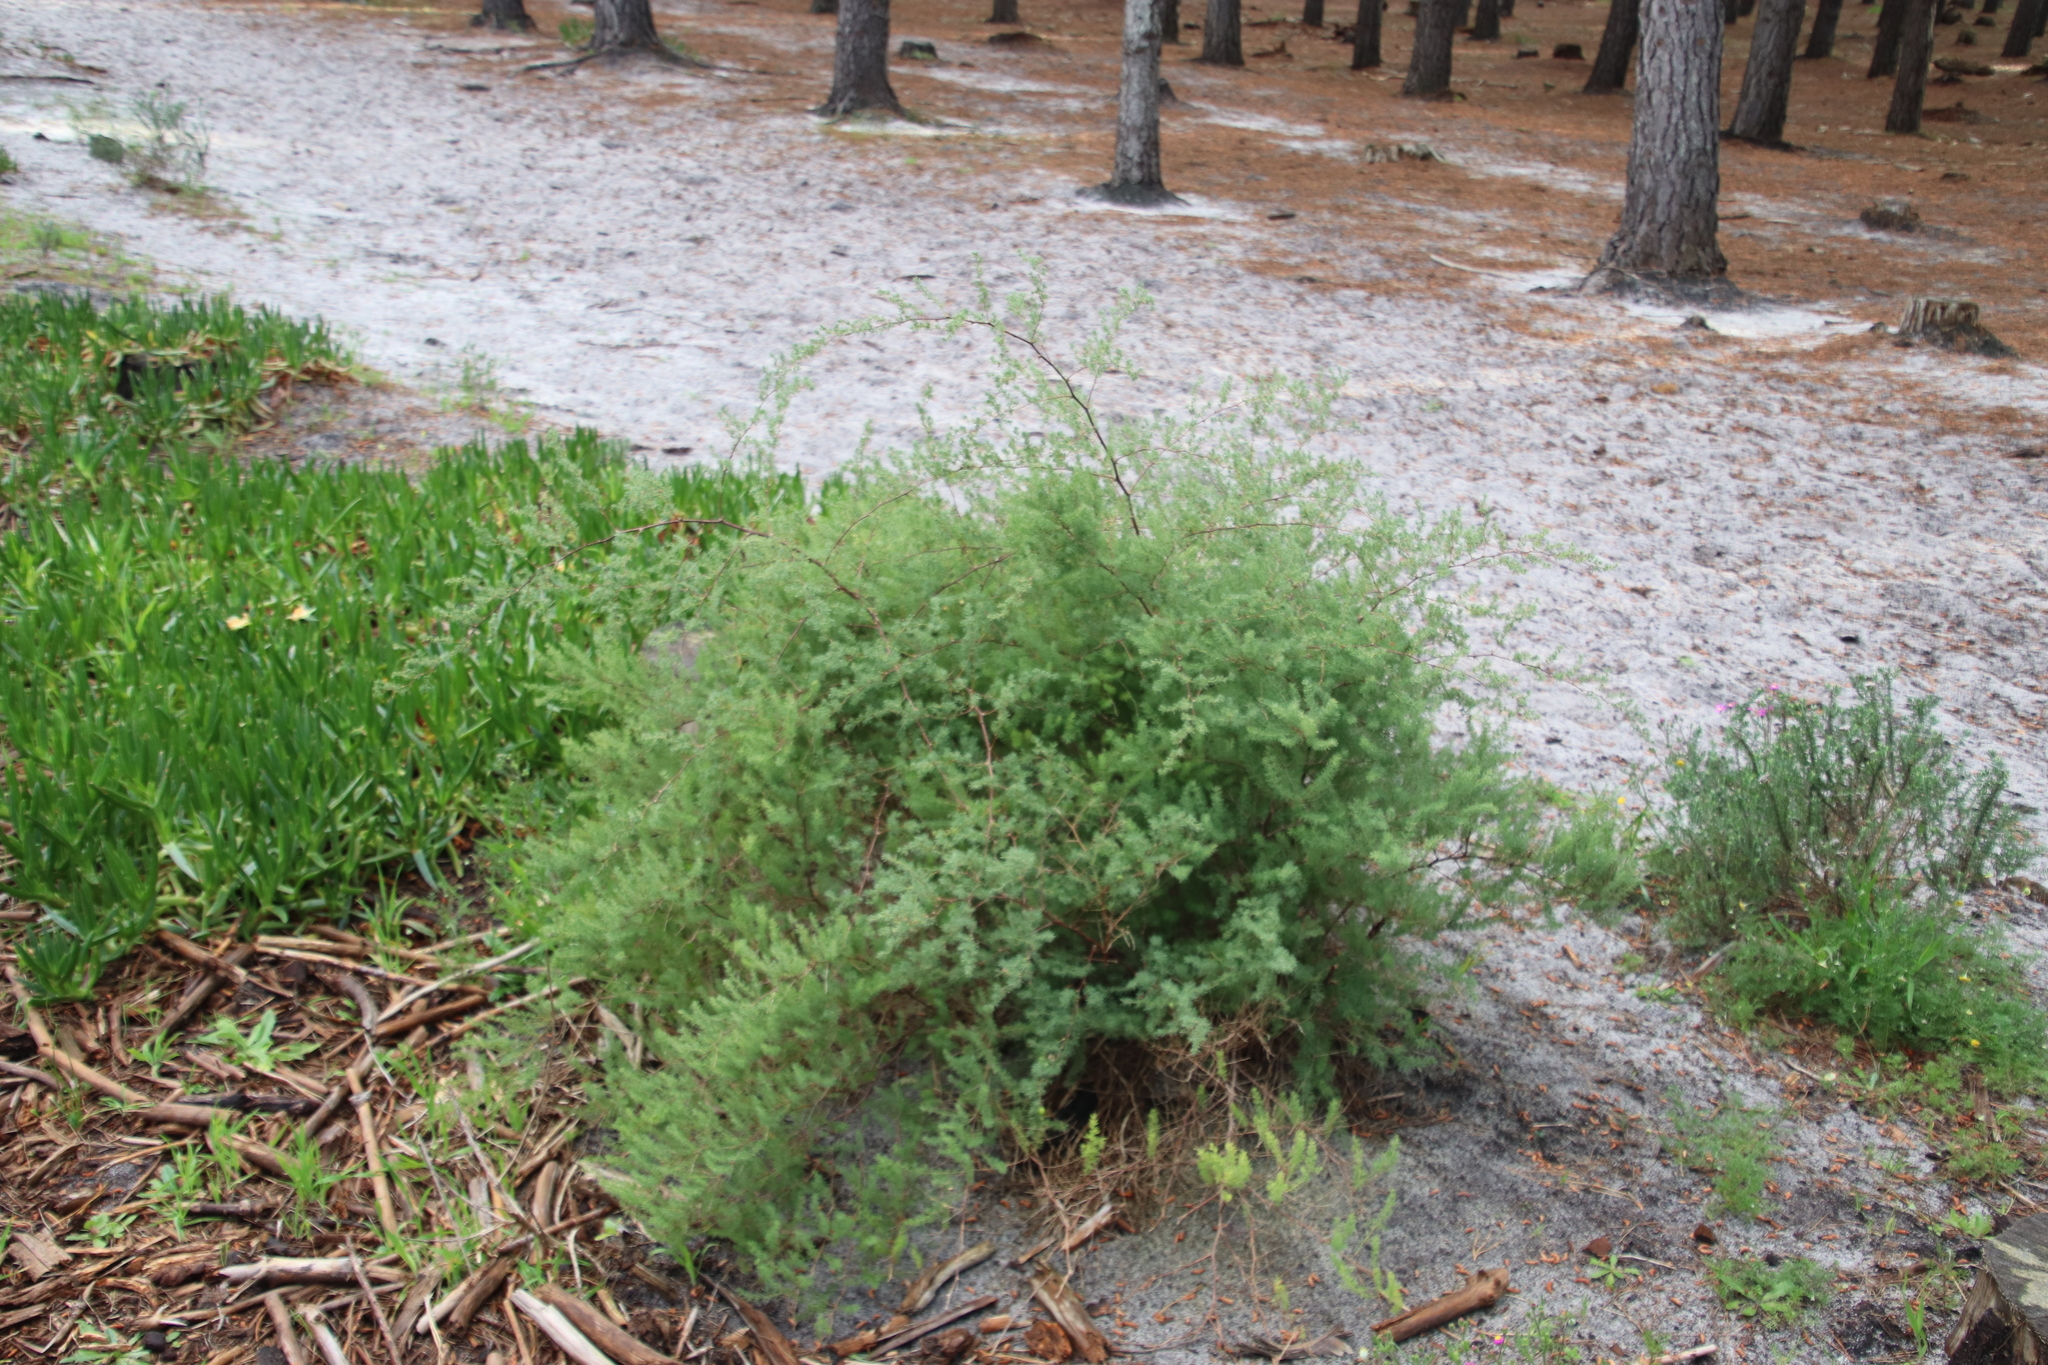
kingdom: Plantae
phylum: Tracheophyta
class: Liliopsida
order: Asparagales
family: Asparagaceae
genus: Asparagus
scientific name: Asparagus rubicundus
